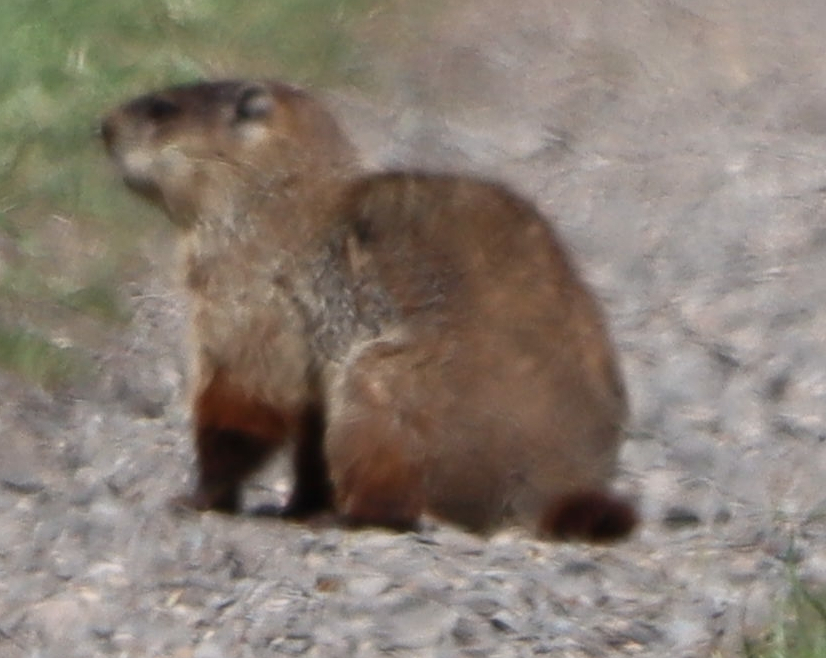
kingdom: Animalia
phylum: Chordata
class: Mammalia
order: Rodentia
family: Sciuridae
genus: Marmota
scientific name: Marmota monax
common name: Groundhog
